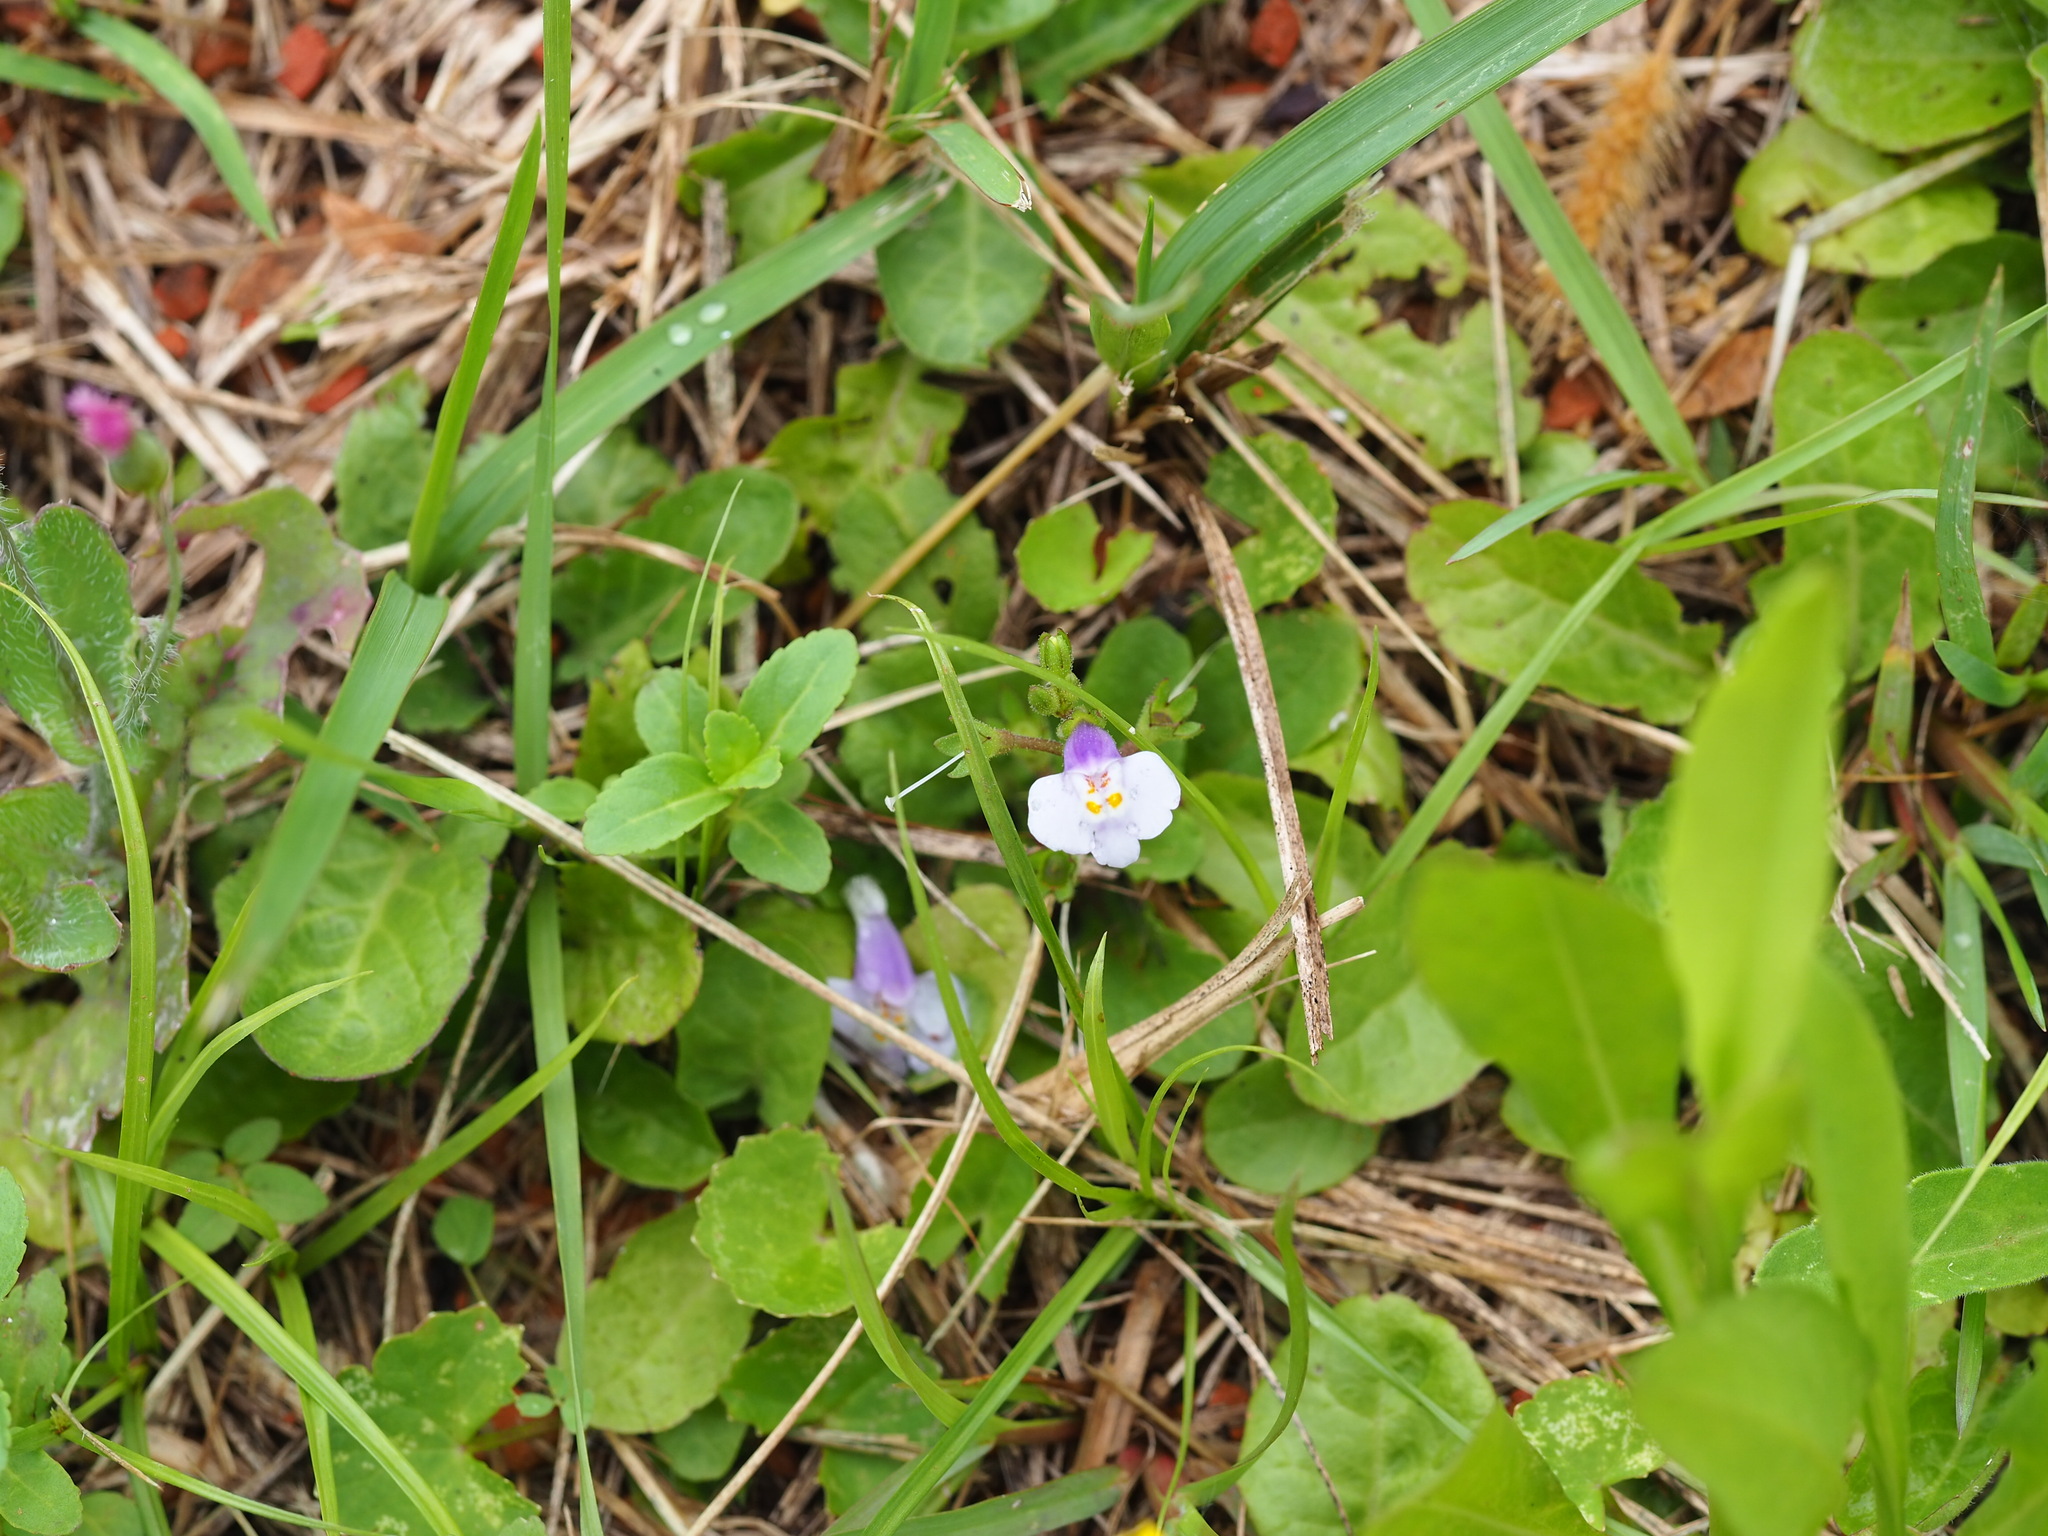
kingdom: Plantae
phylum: Tracheophyta
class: Magnoliopsida
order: Lamiales
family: Mazaceae
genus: Mazus
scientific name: Mazus fauriei
